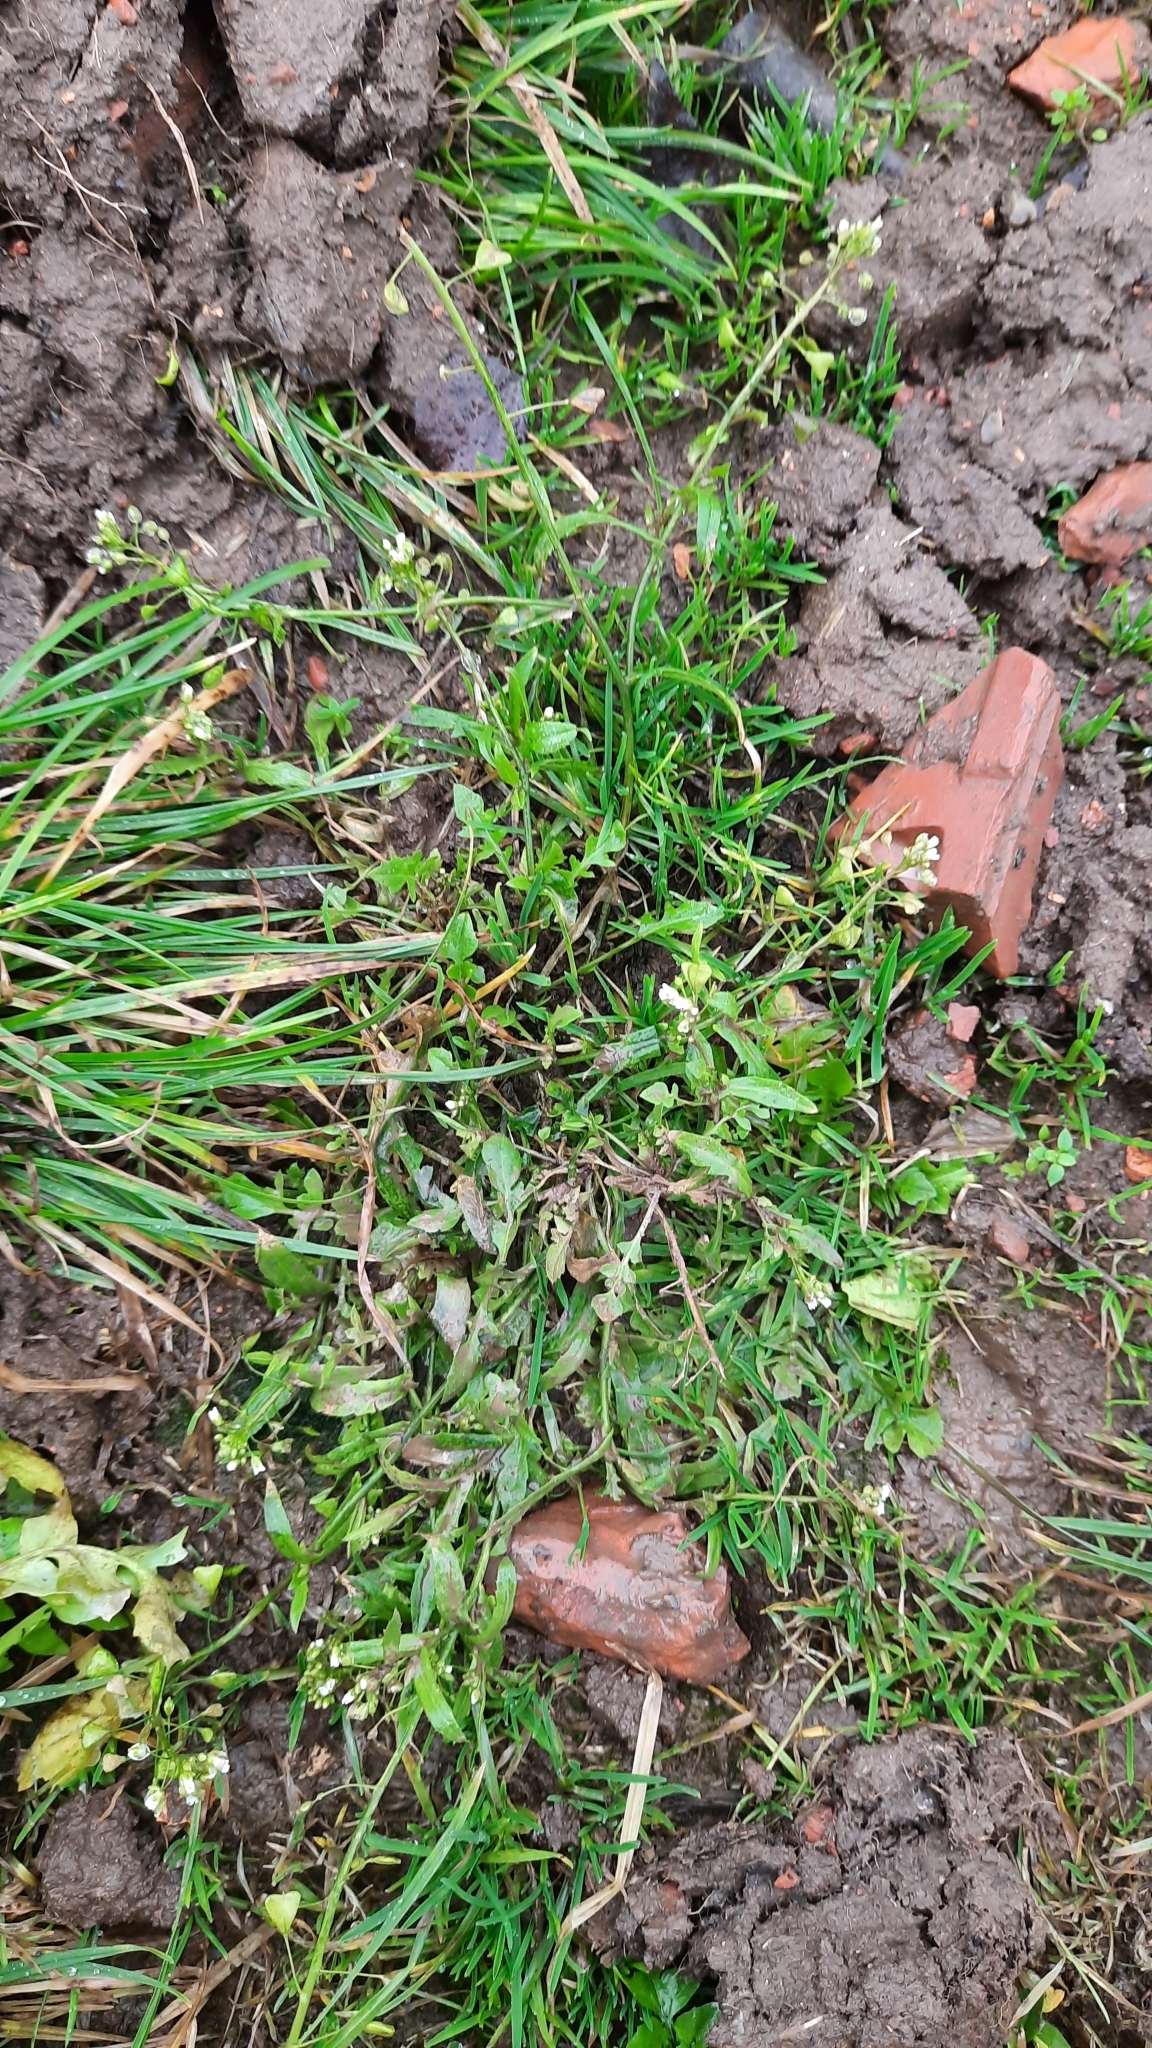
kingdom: Plantae
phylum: Tracheophyta
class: Magnoliopsida
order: Brassicales
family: Brassicaceae
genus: Capsella
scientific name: Capsella bursa-pastoris
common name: Shepherd's purse
